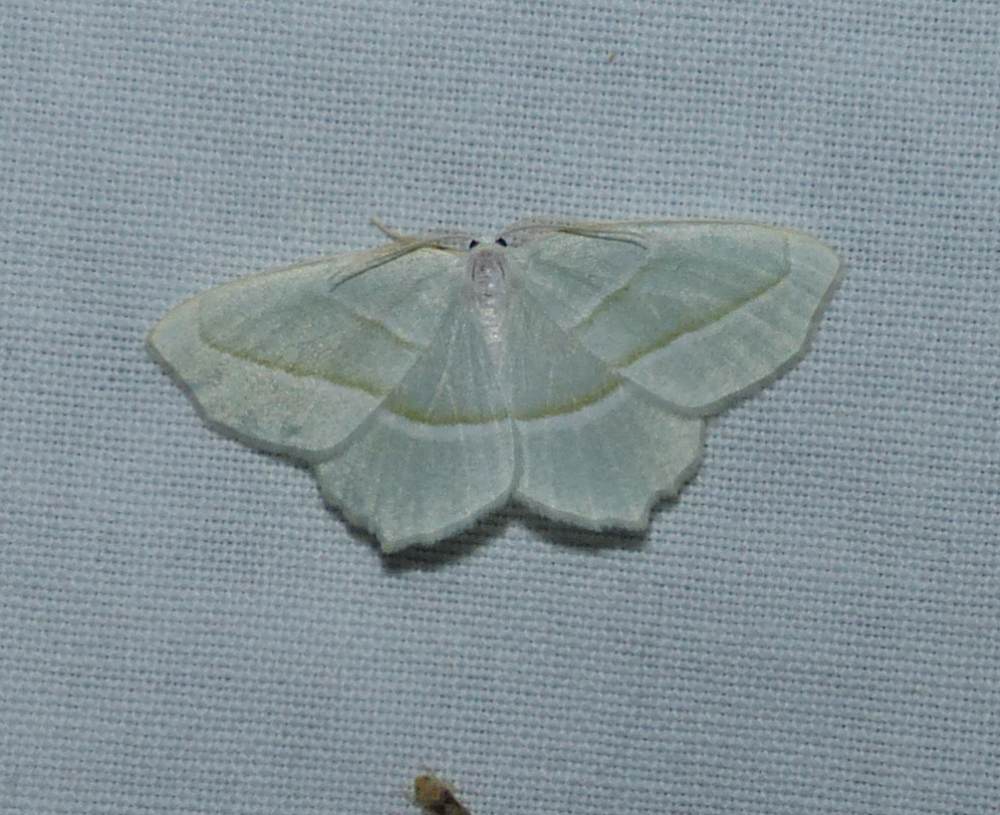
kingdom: Animalia
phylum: Arthropoda
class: Insecta
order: Lepidoptera
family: Geometridae
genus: Campaea
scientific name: Campaea perlata
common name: Fringed looper
